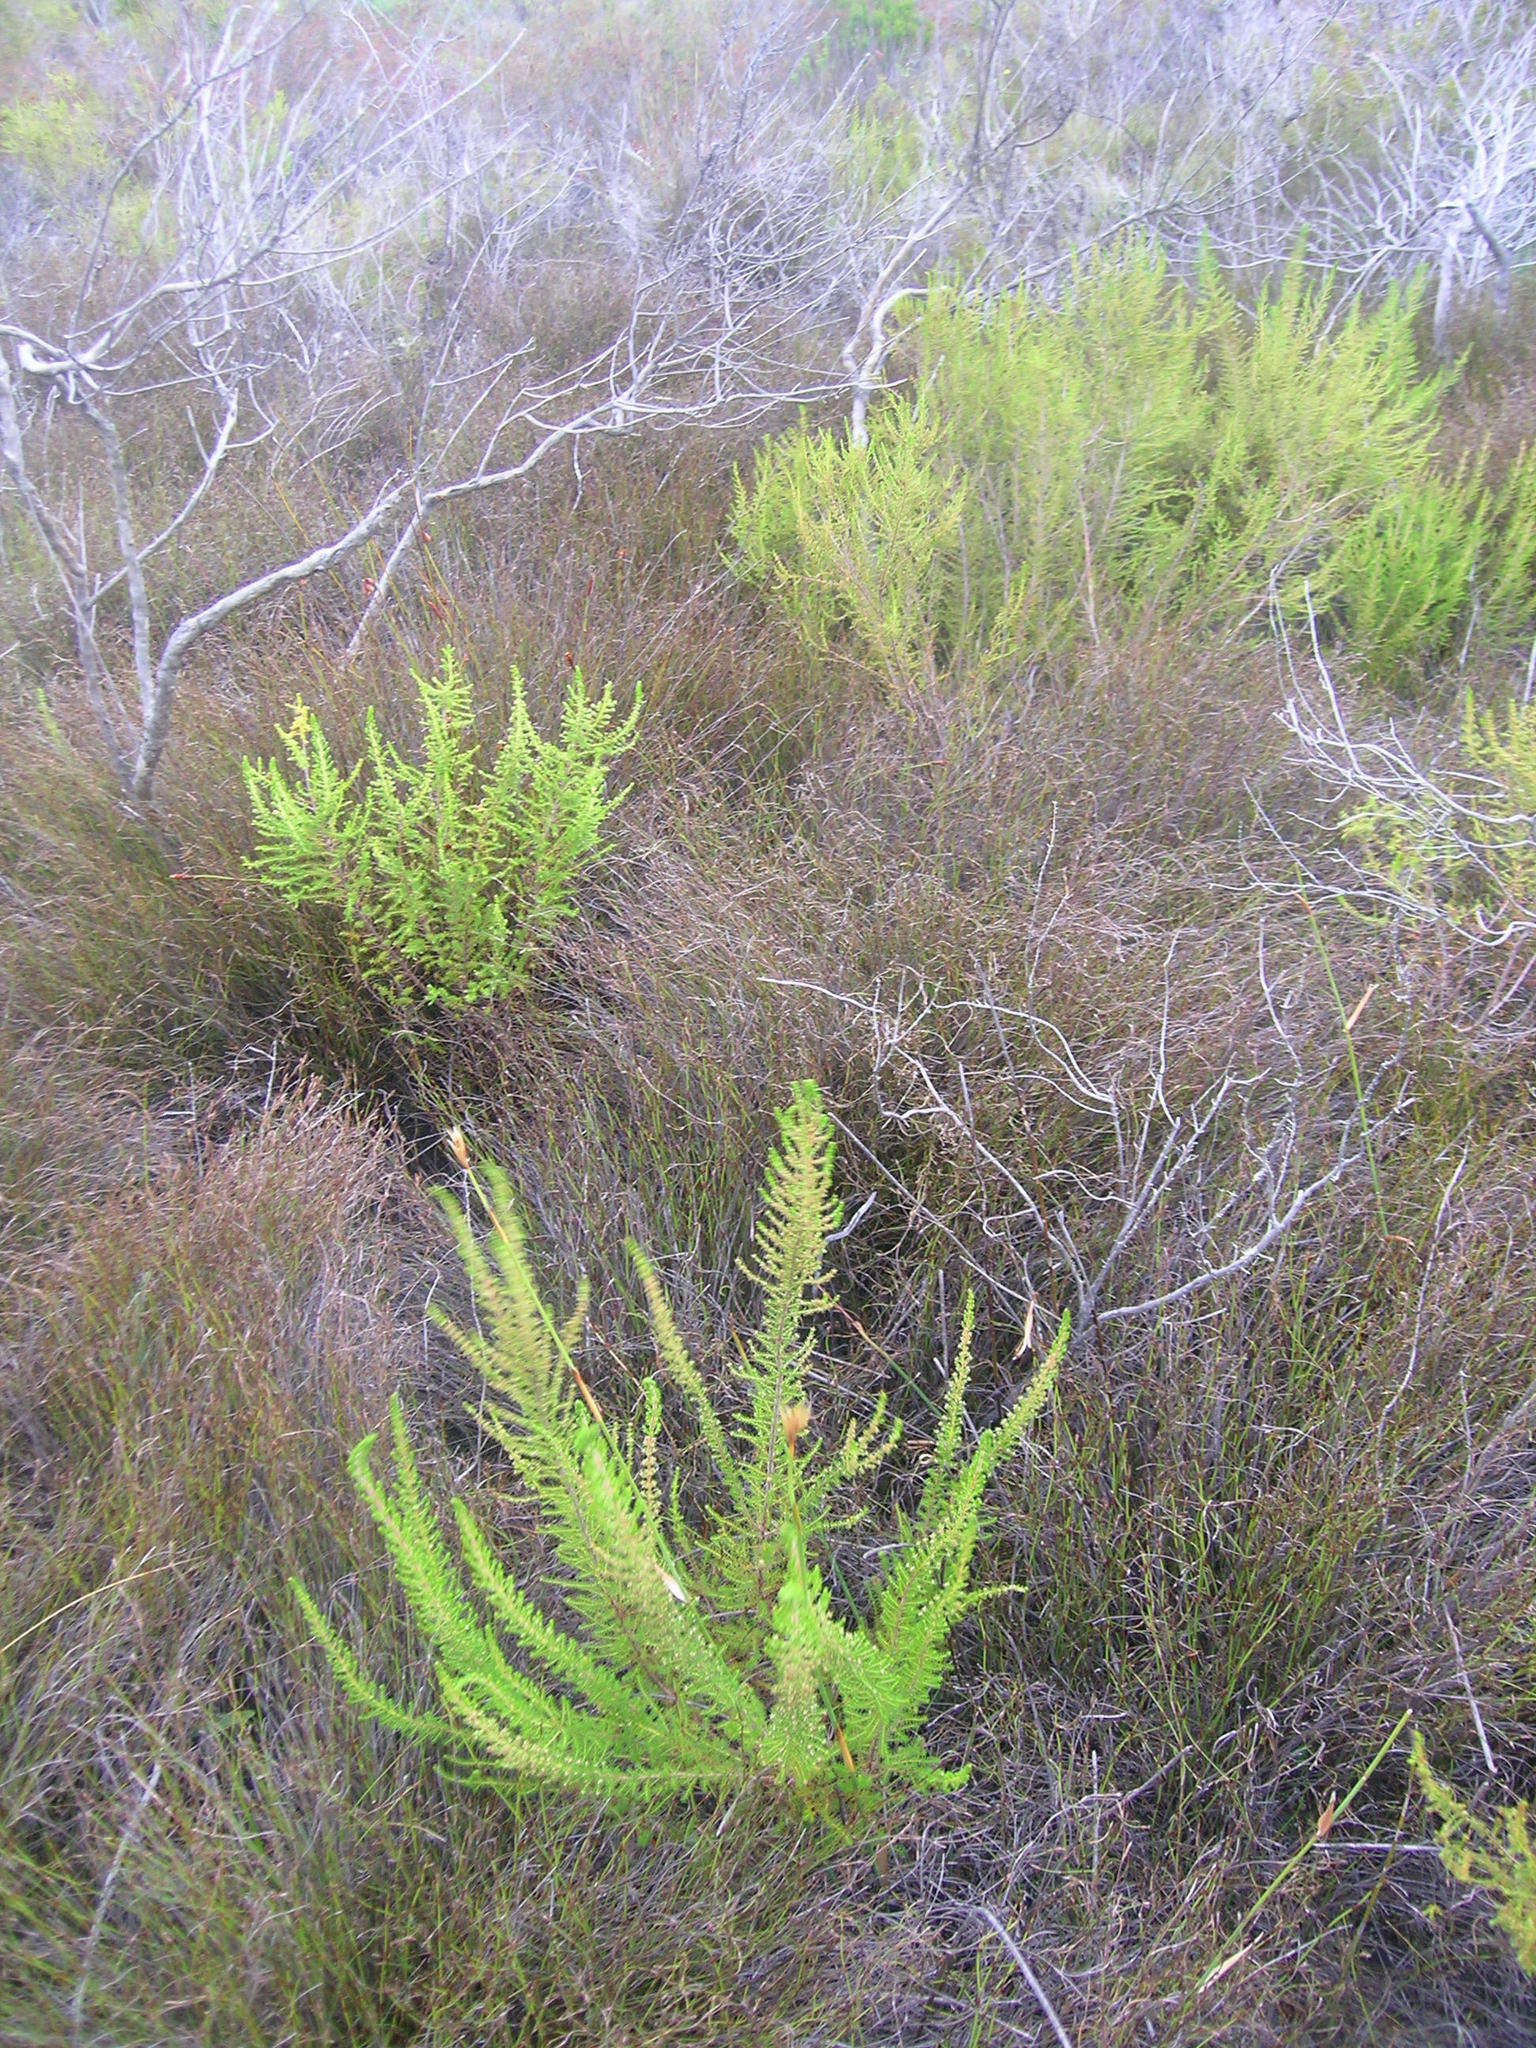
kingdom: Plantae
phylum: Tracheophyta
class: Magnoliopsida
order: Ericales
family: Ericaceae
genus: Erica
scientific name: Erica muscosa
